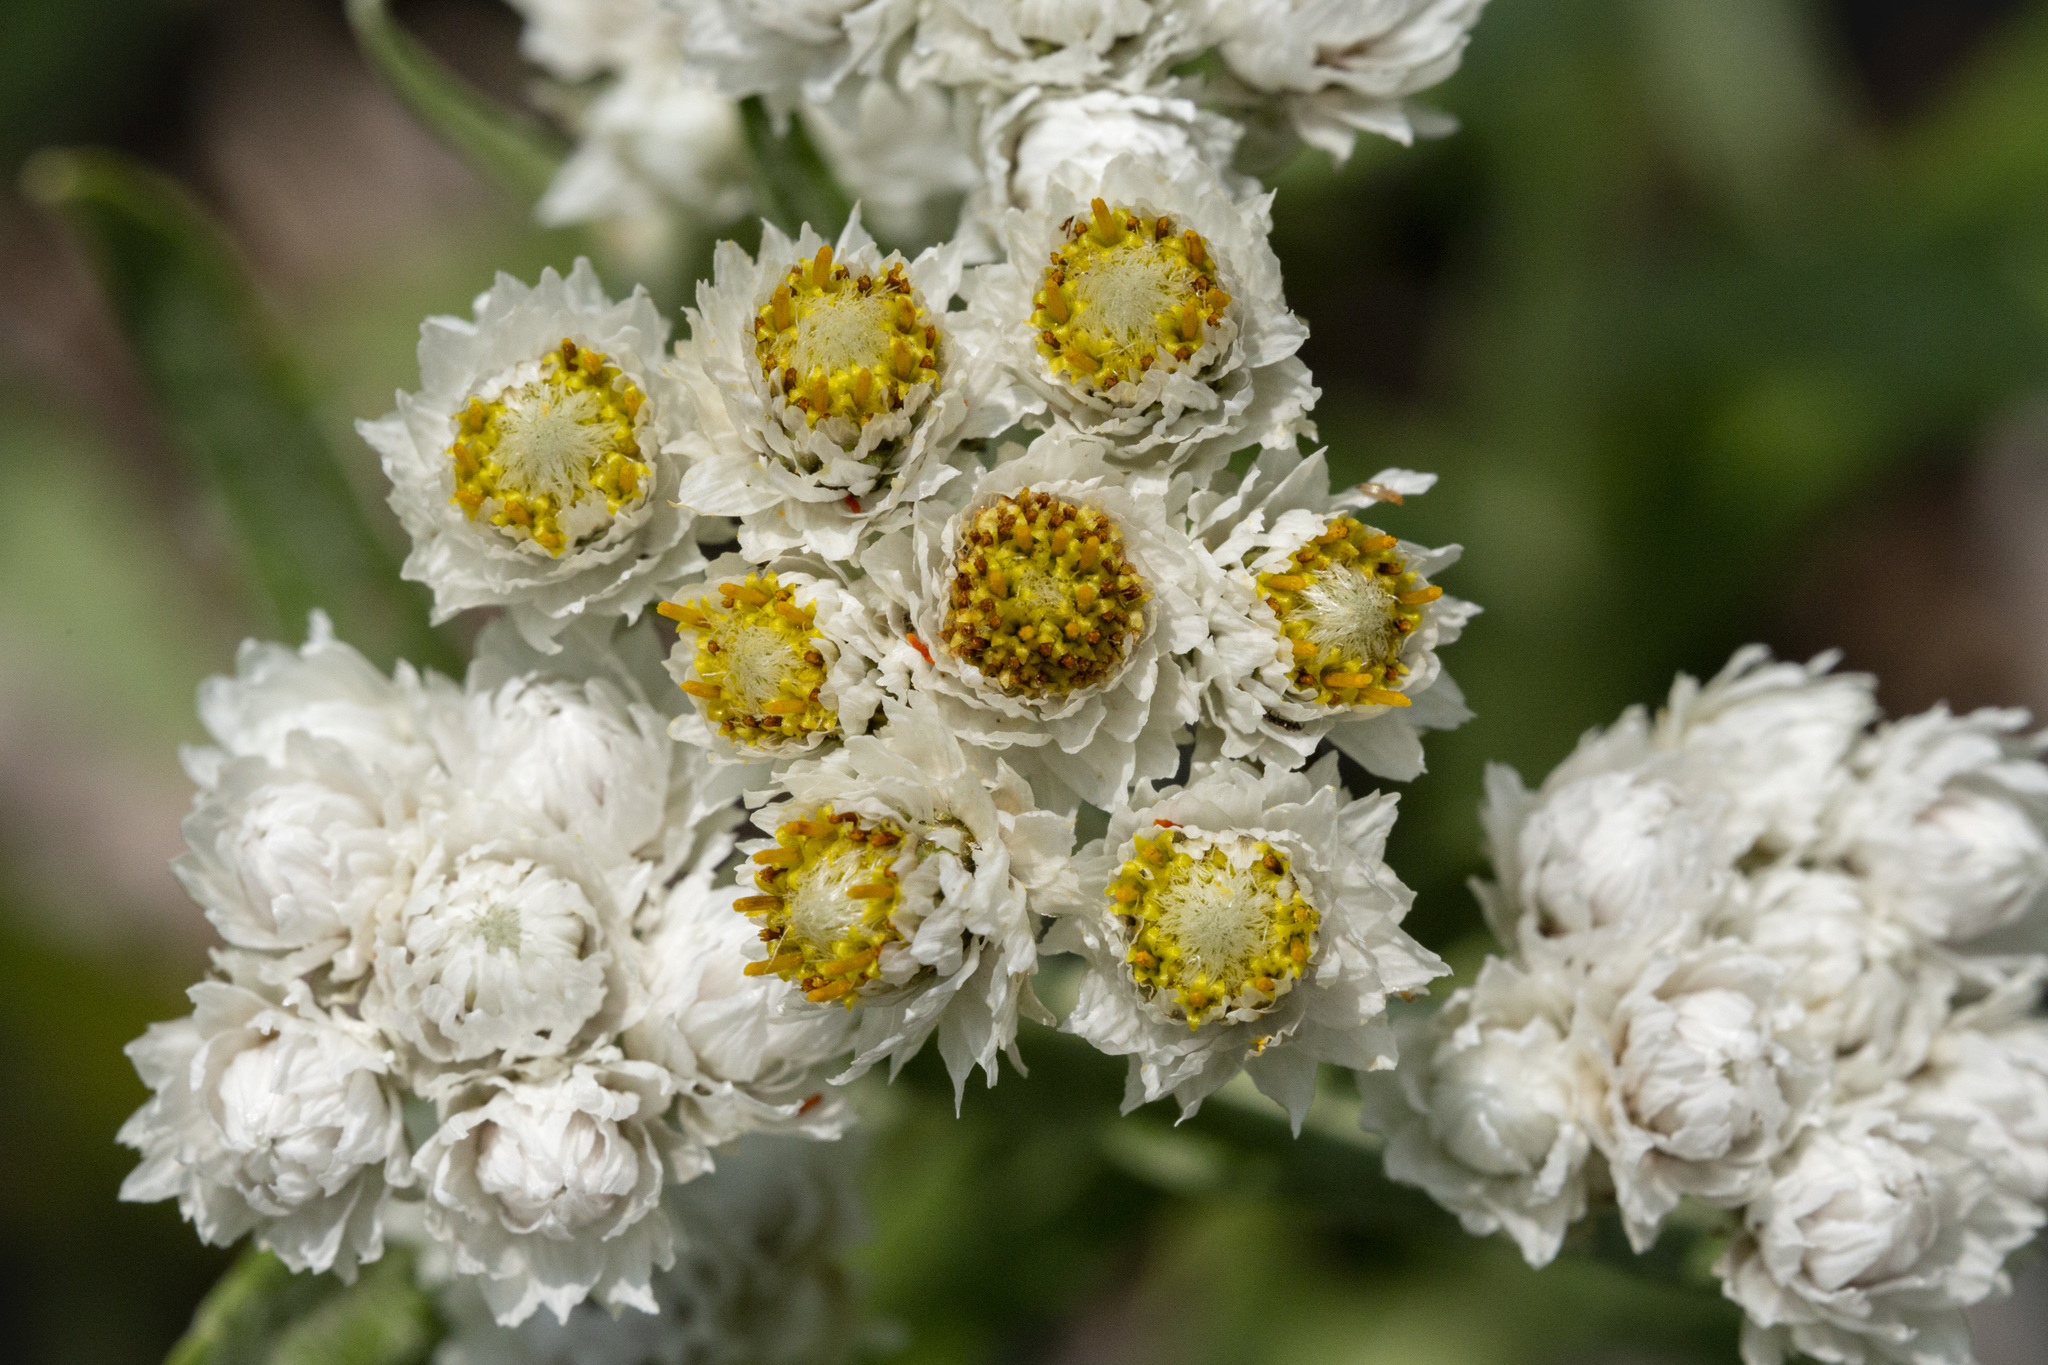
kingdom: Plantae
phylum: Tracheophyta
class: Magnoliopsida
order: Asterales
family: Asteraceae
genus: Anaphalis
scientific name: Anaphalis margaritacea
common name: Pearly everlasting
